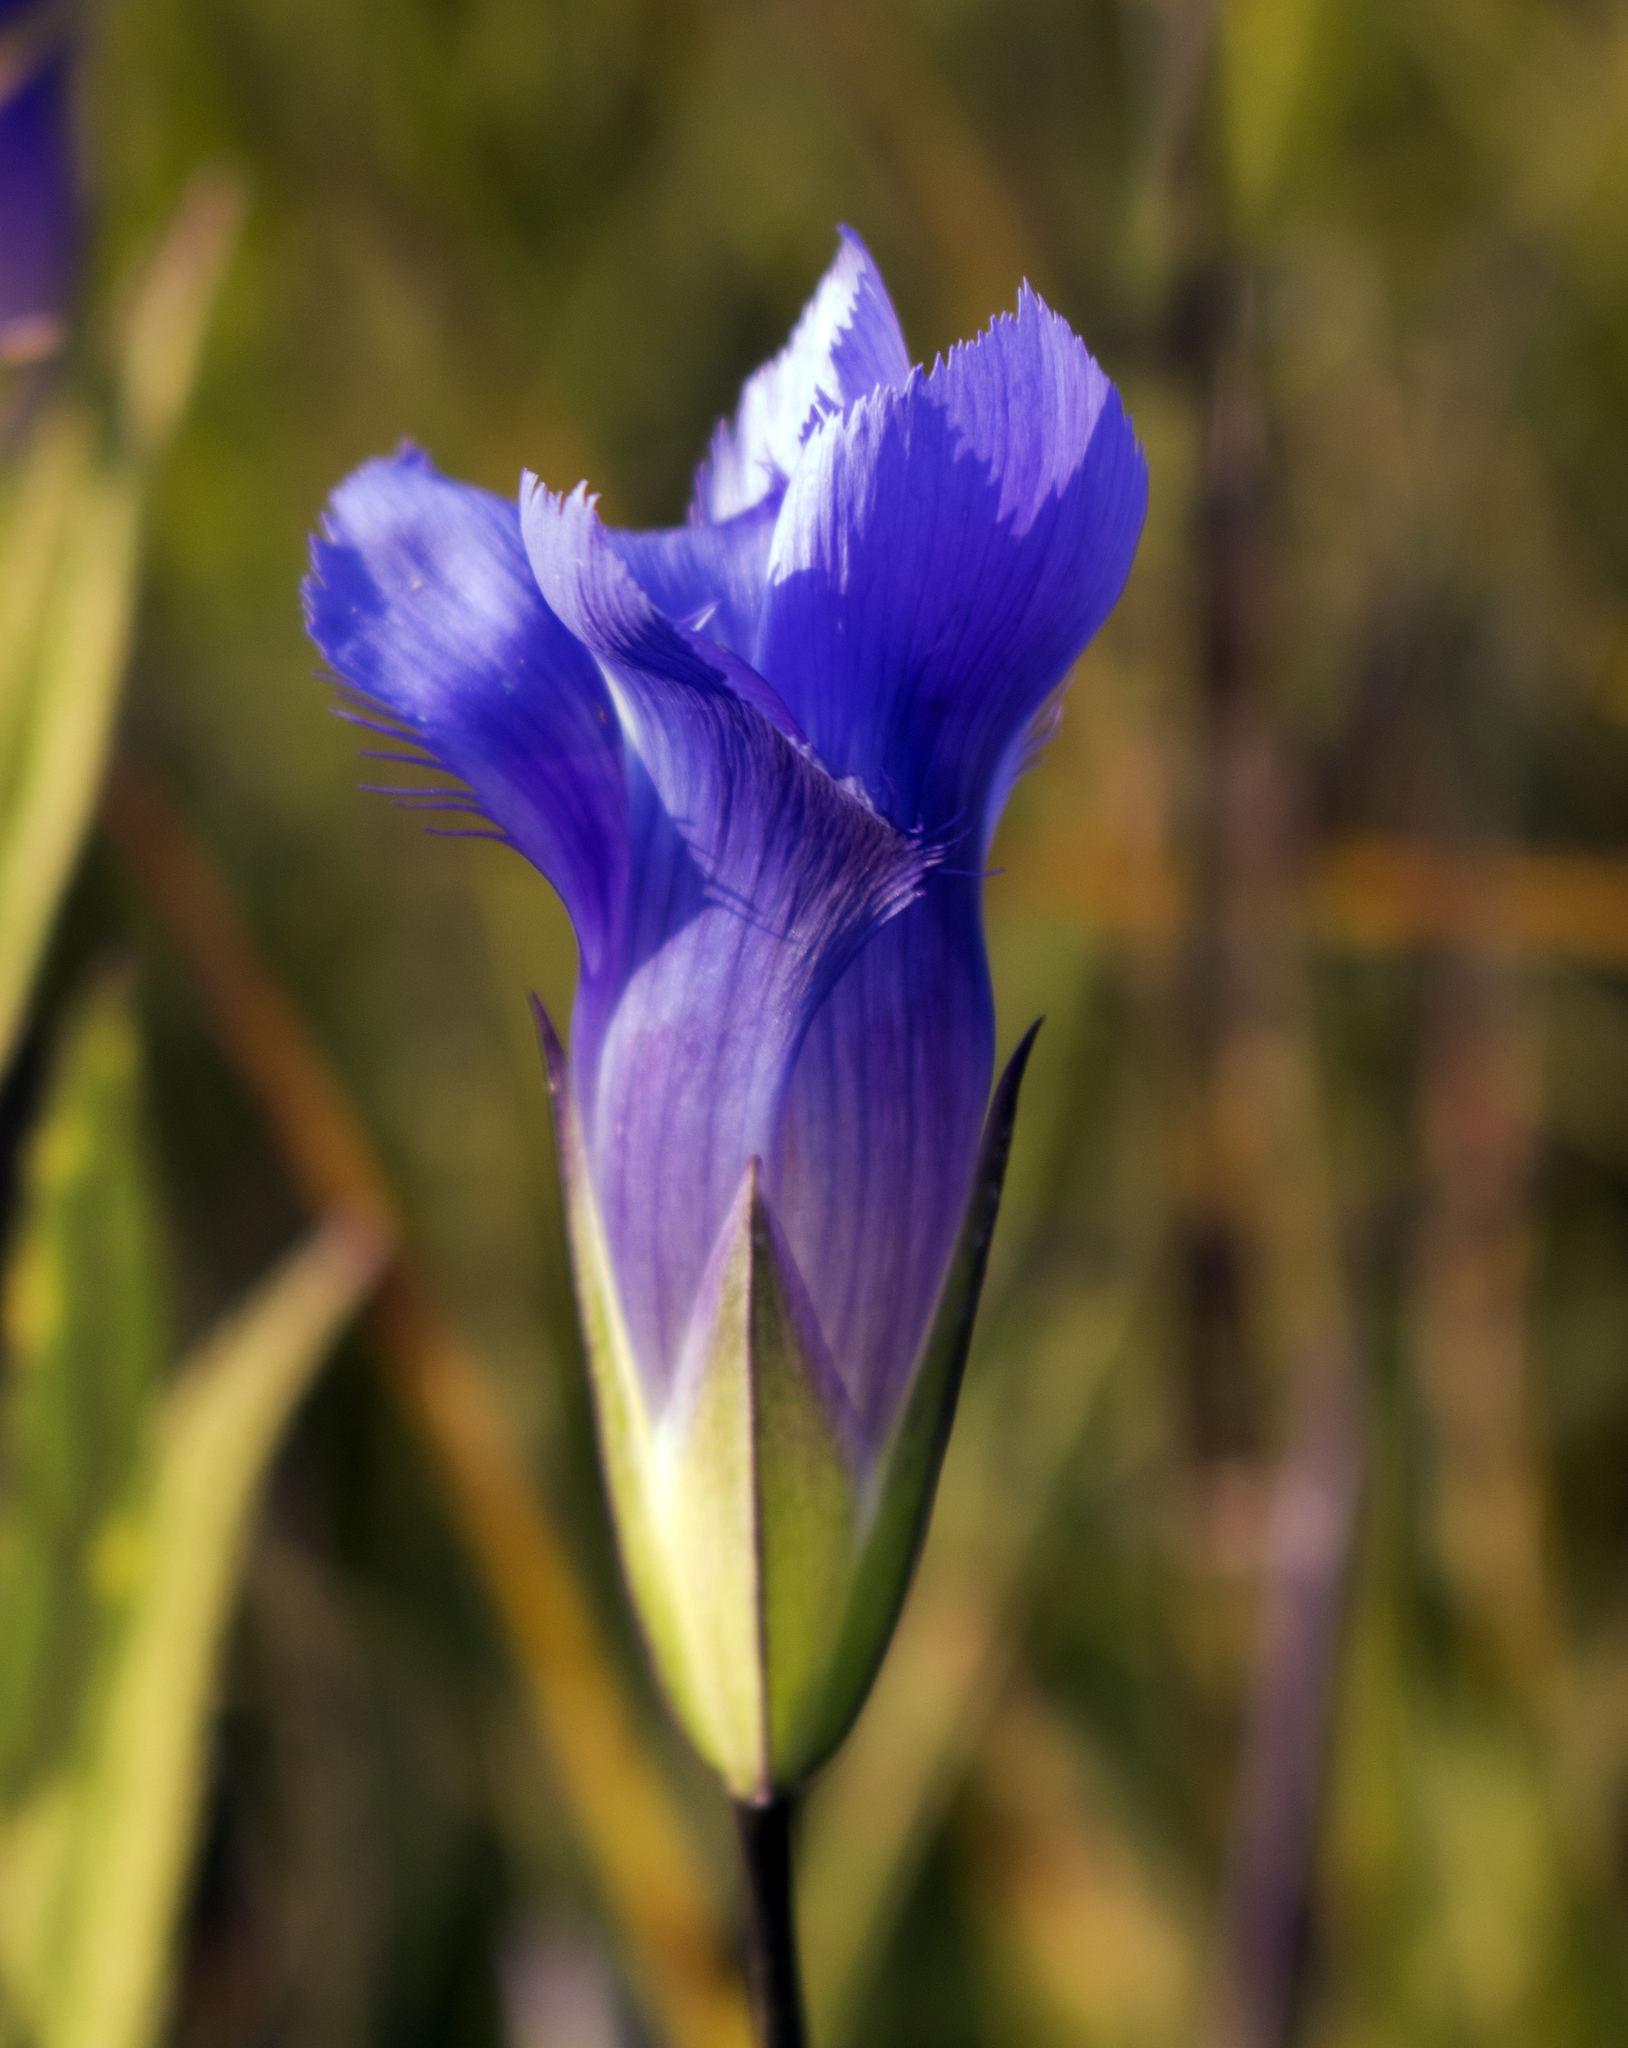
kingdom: Plantae
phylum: Tracheophyta
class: Magnoliopsida
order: Gentianales
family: Gentianaceae
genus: Gentianopsis
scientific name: Gentianopsis virgata
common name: Lesser fringed-gentian
